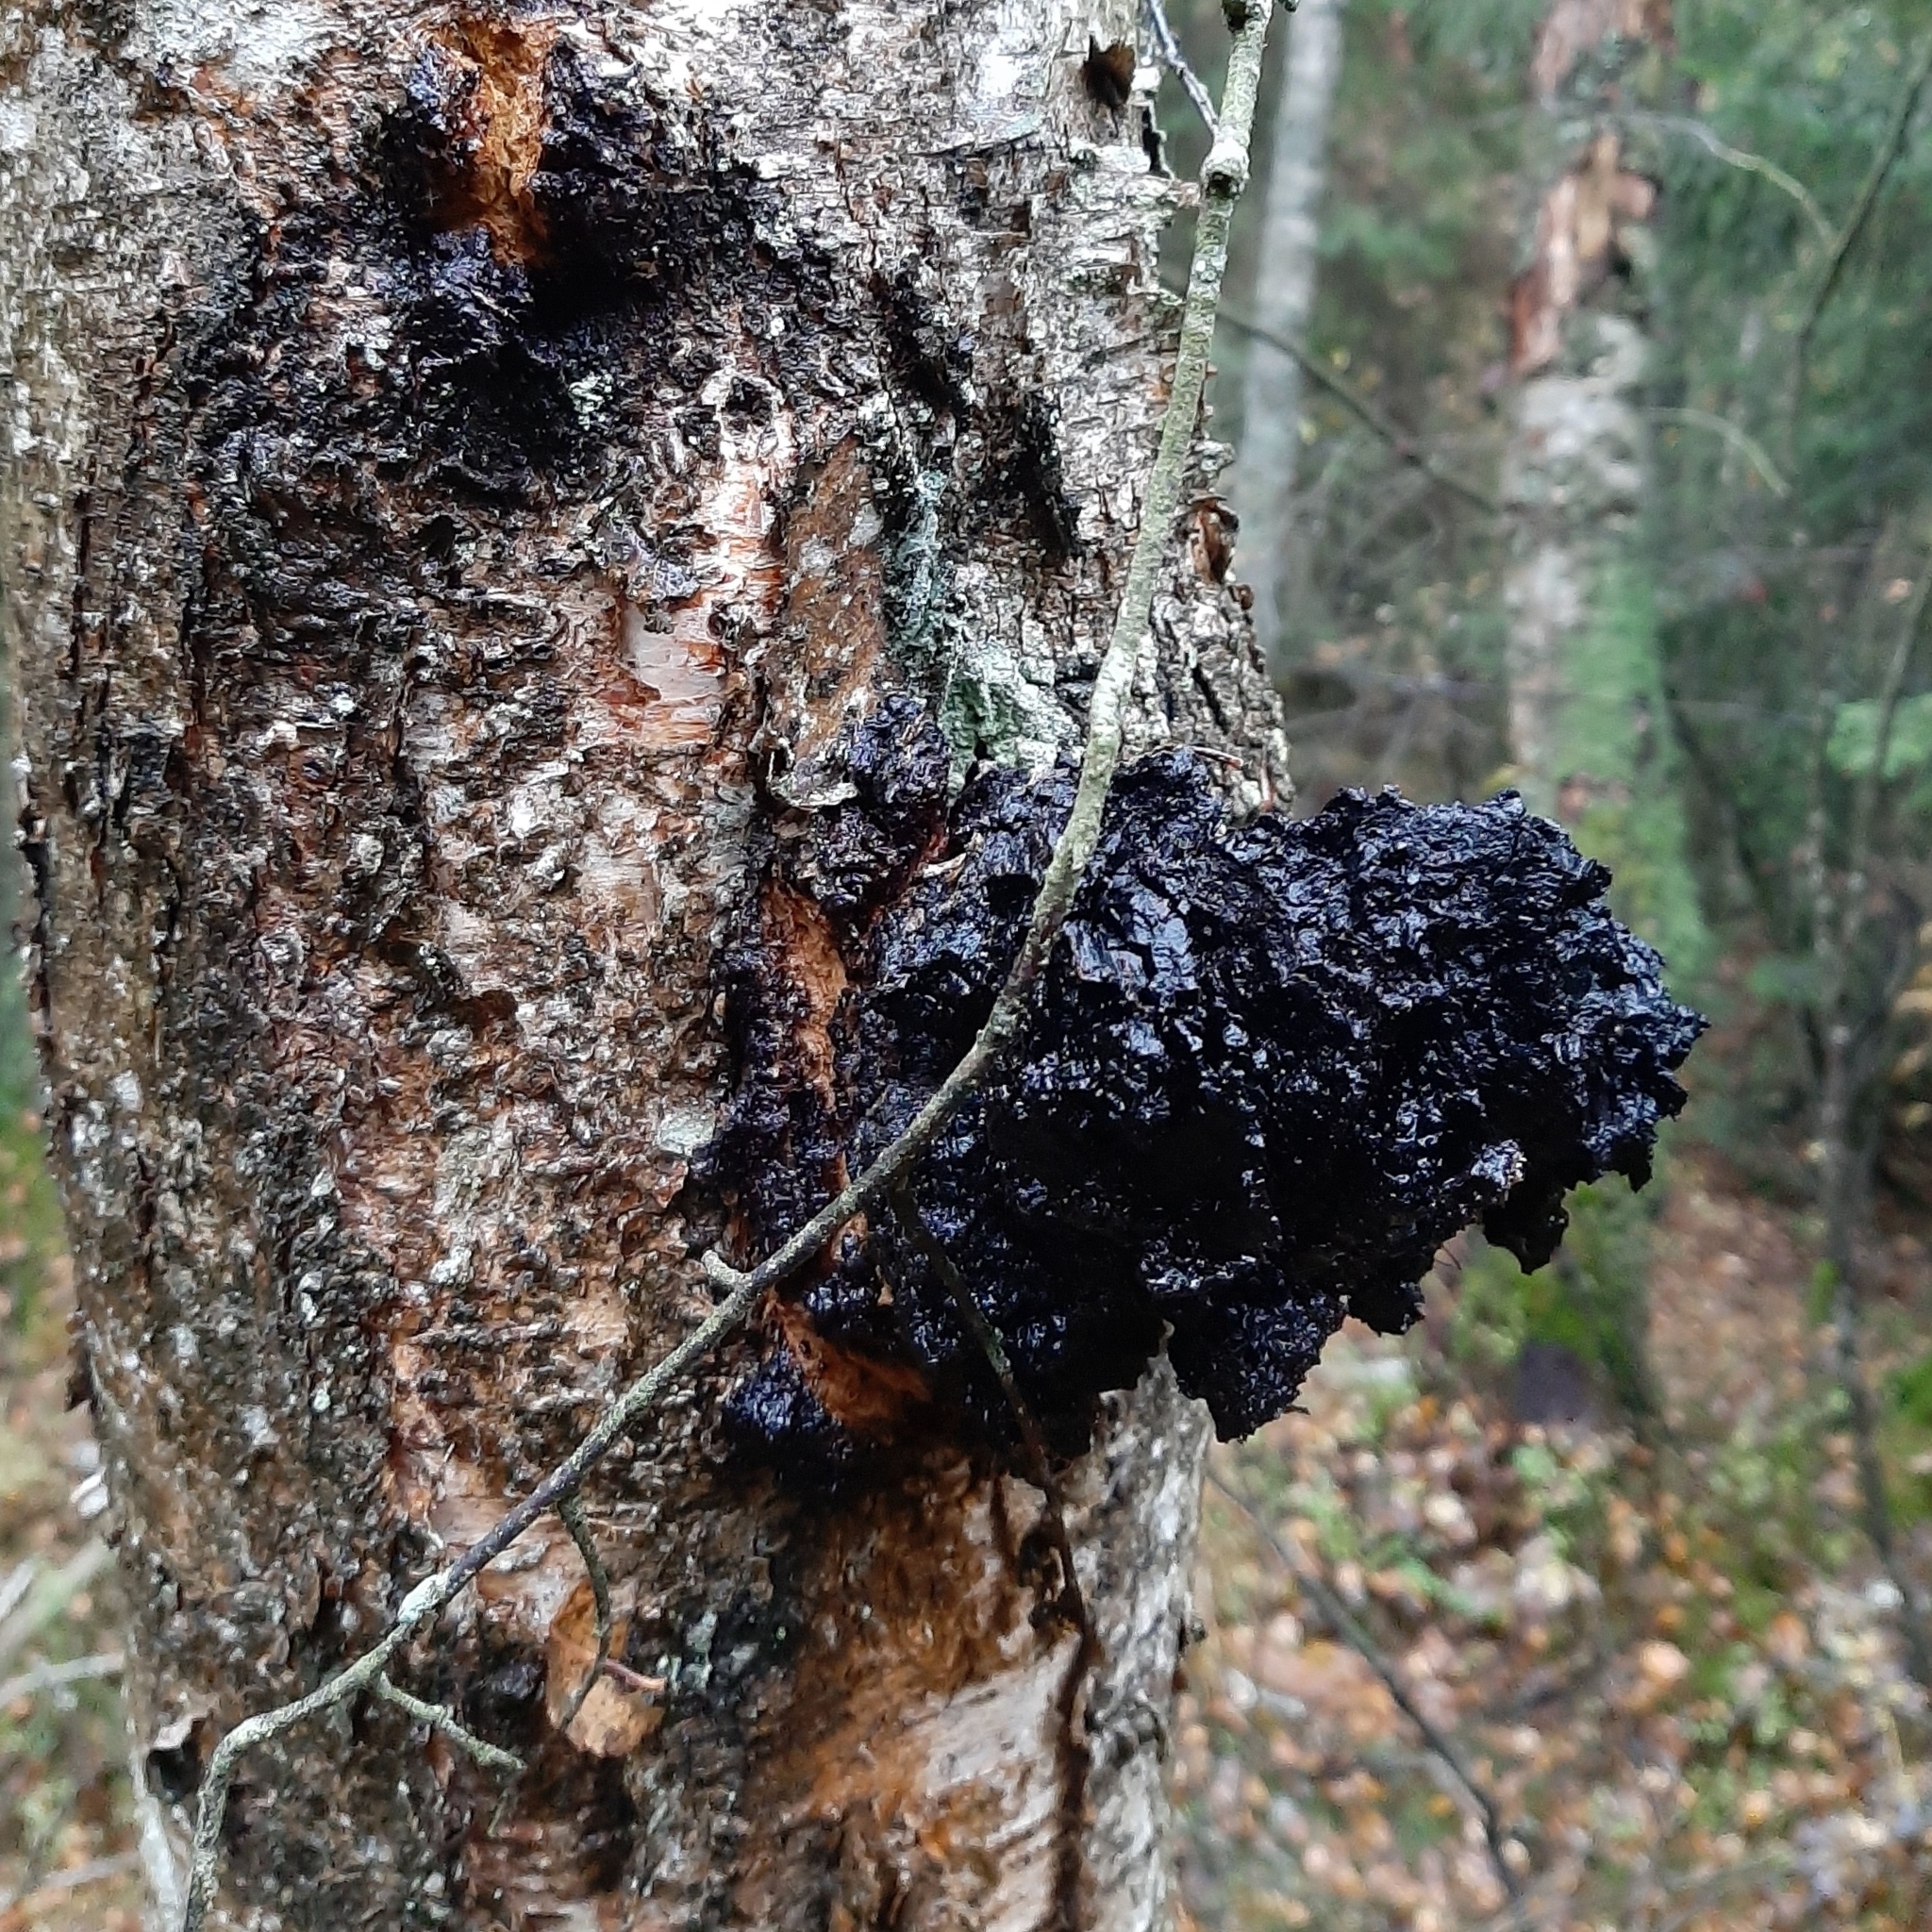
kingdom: Fungi
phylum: Basidiomycota
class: Agaricomycetes
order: Hymenochaetales
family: Hymenochaetaceae
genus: Inonotus
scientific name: Inonotus obliquus
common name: Chaga
